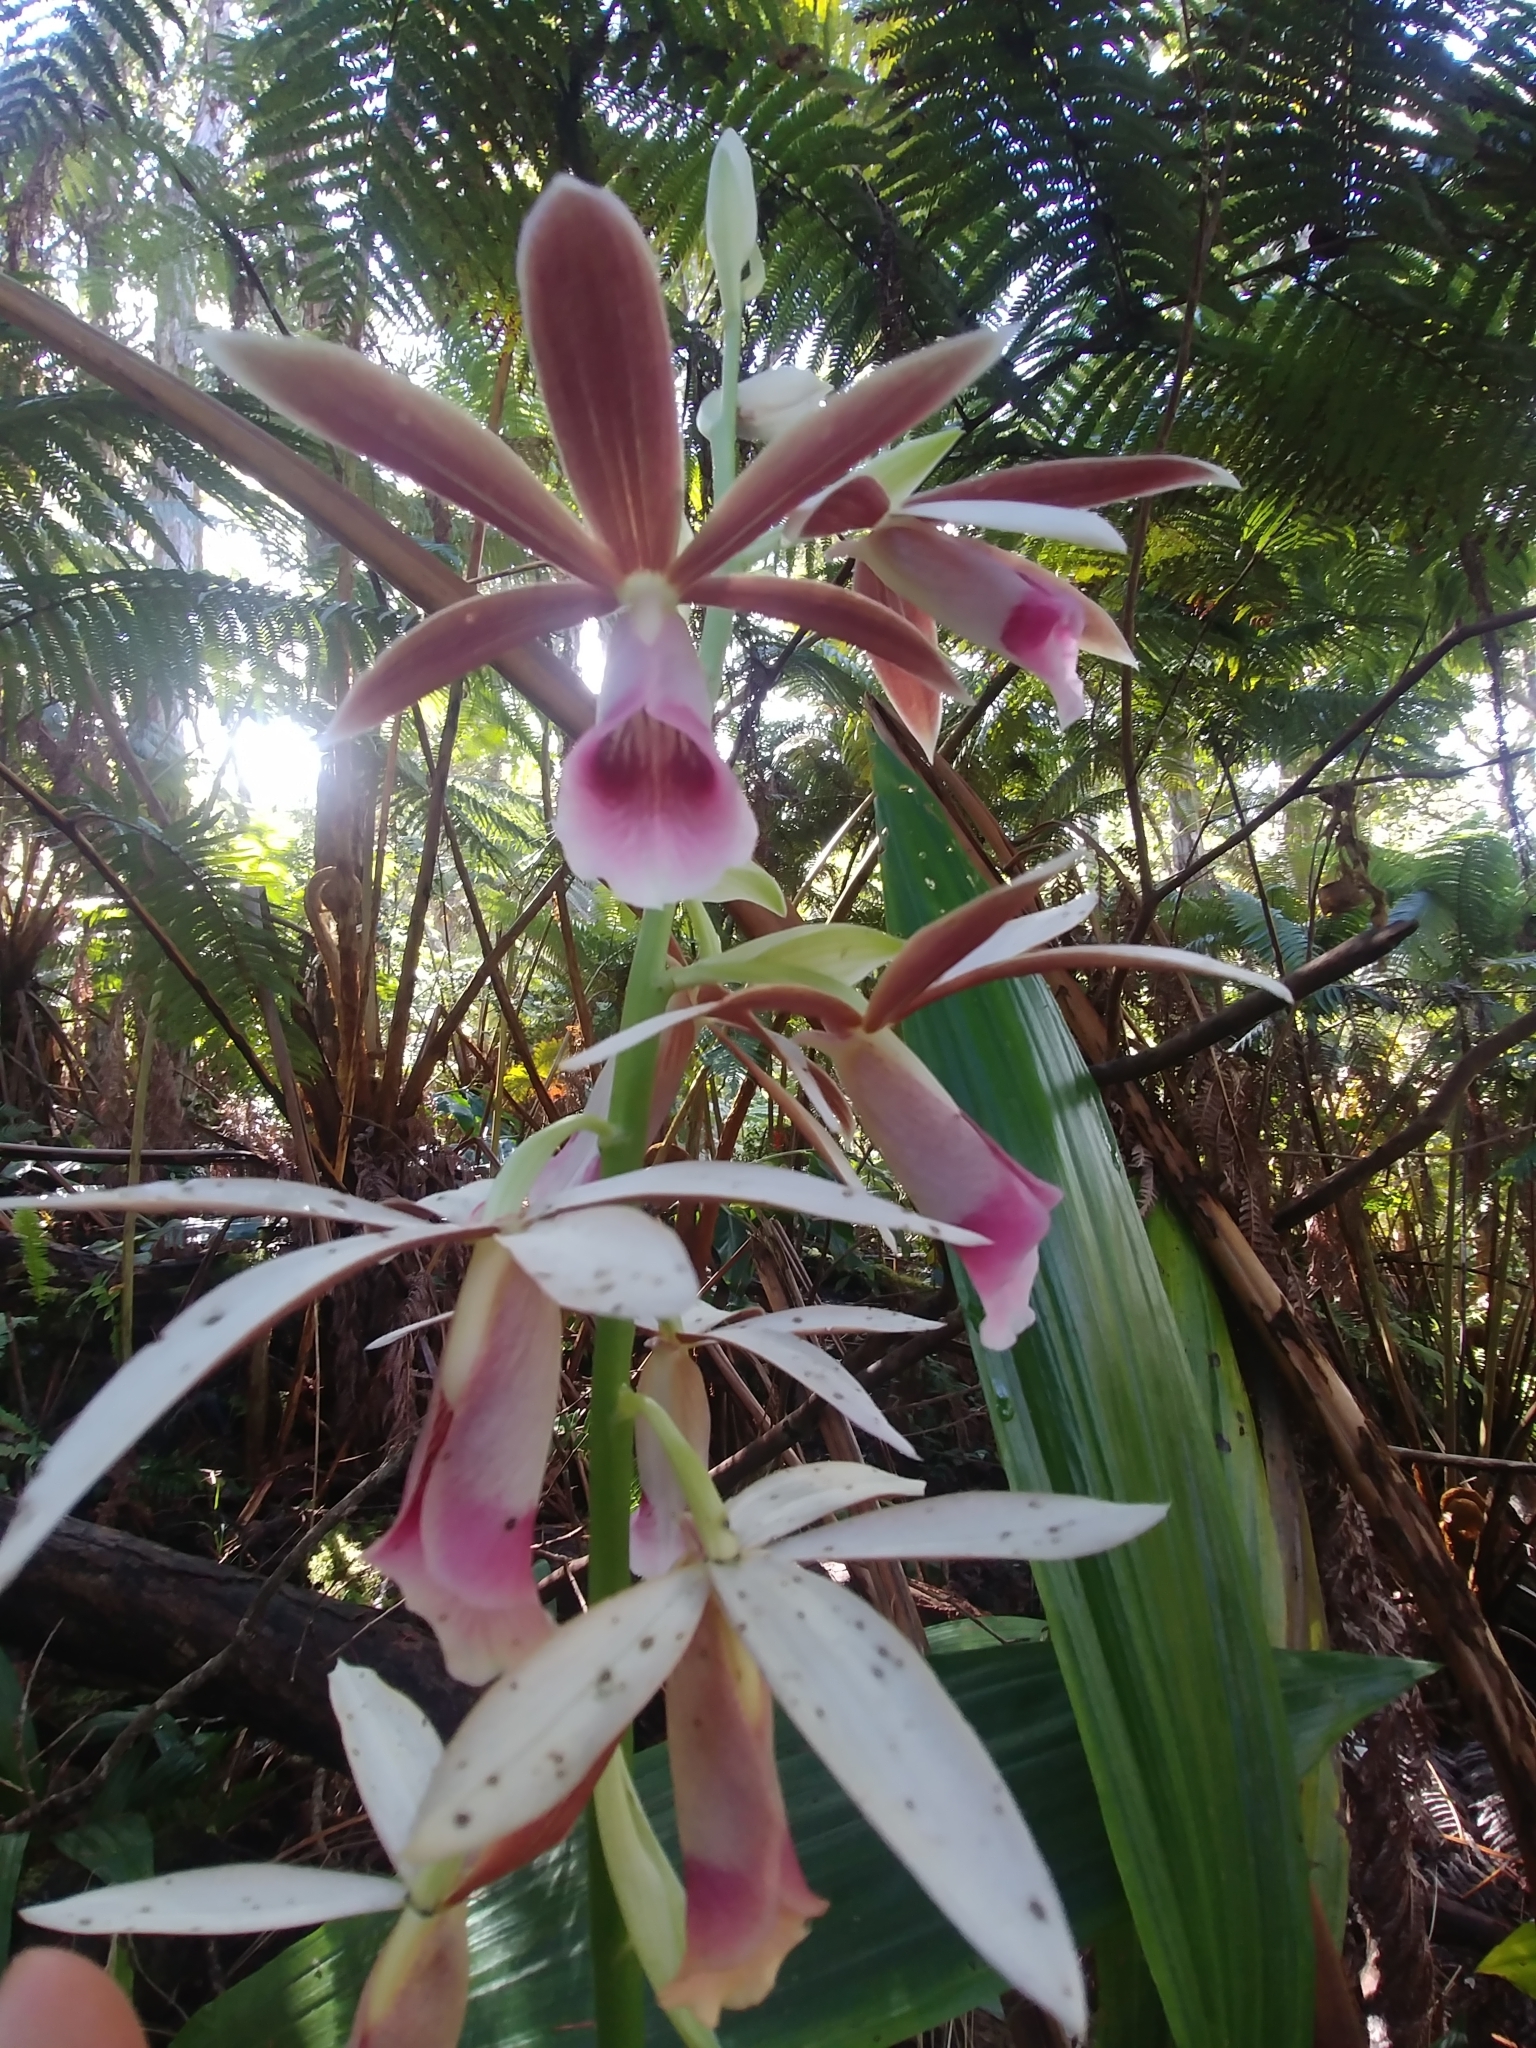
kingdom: Plantae
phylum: Tracheophyta
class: Liliopsida
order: Asparagales
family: Orchidaceae
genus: Calanthe
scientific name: Calanthe tankervilleae
